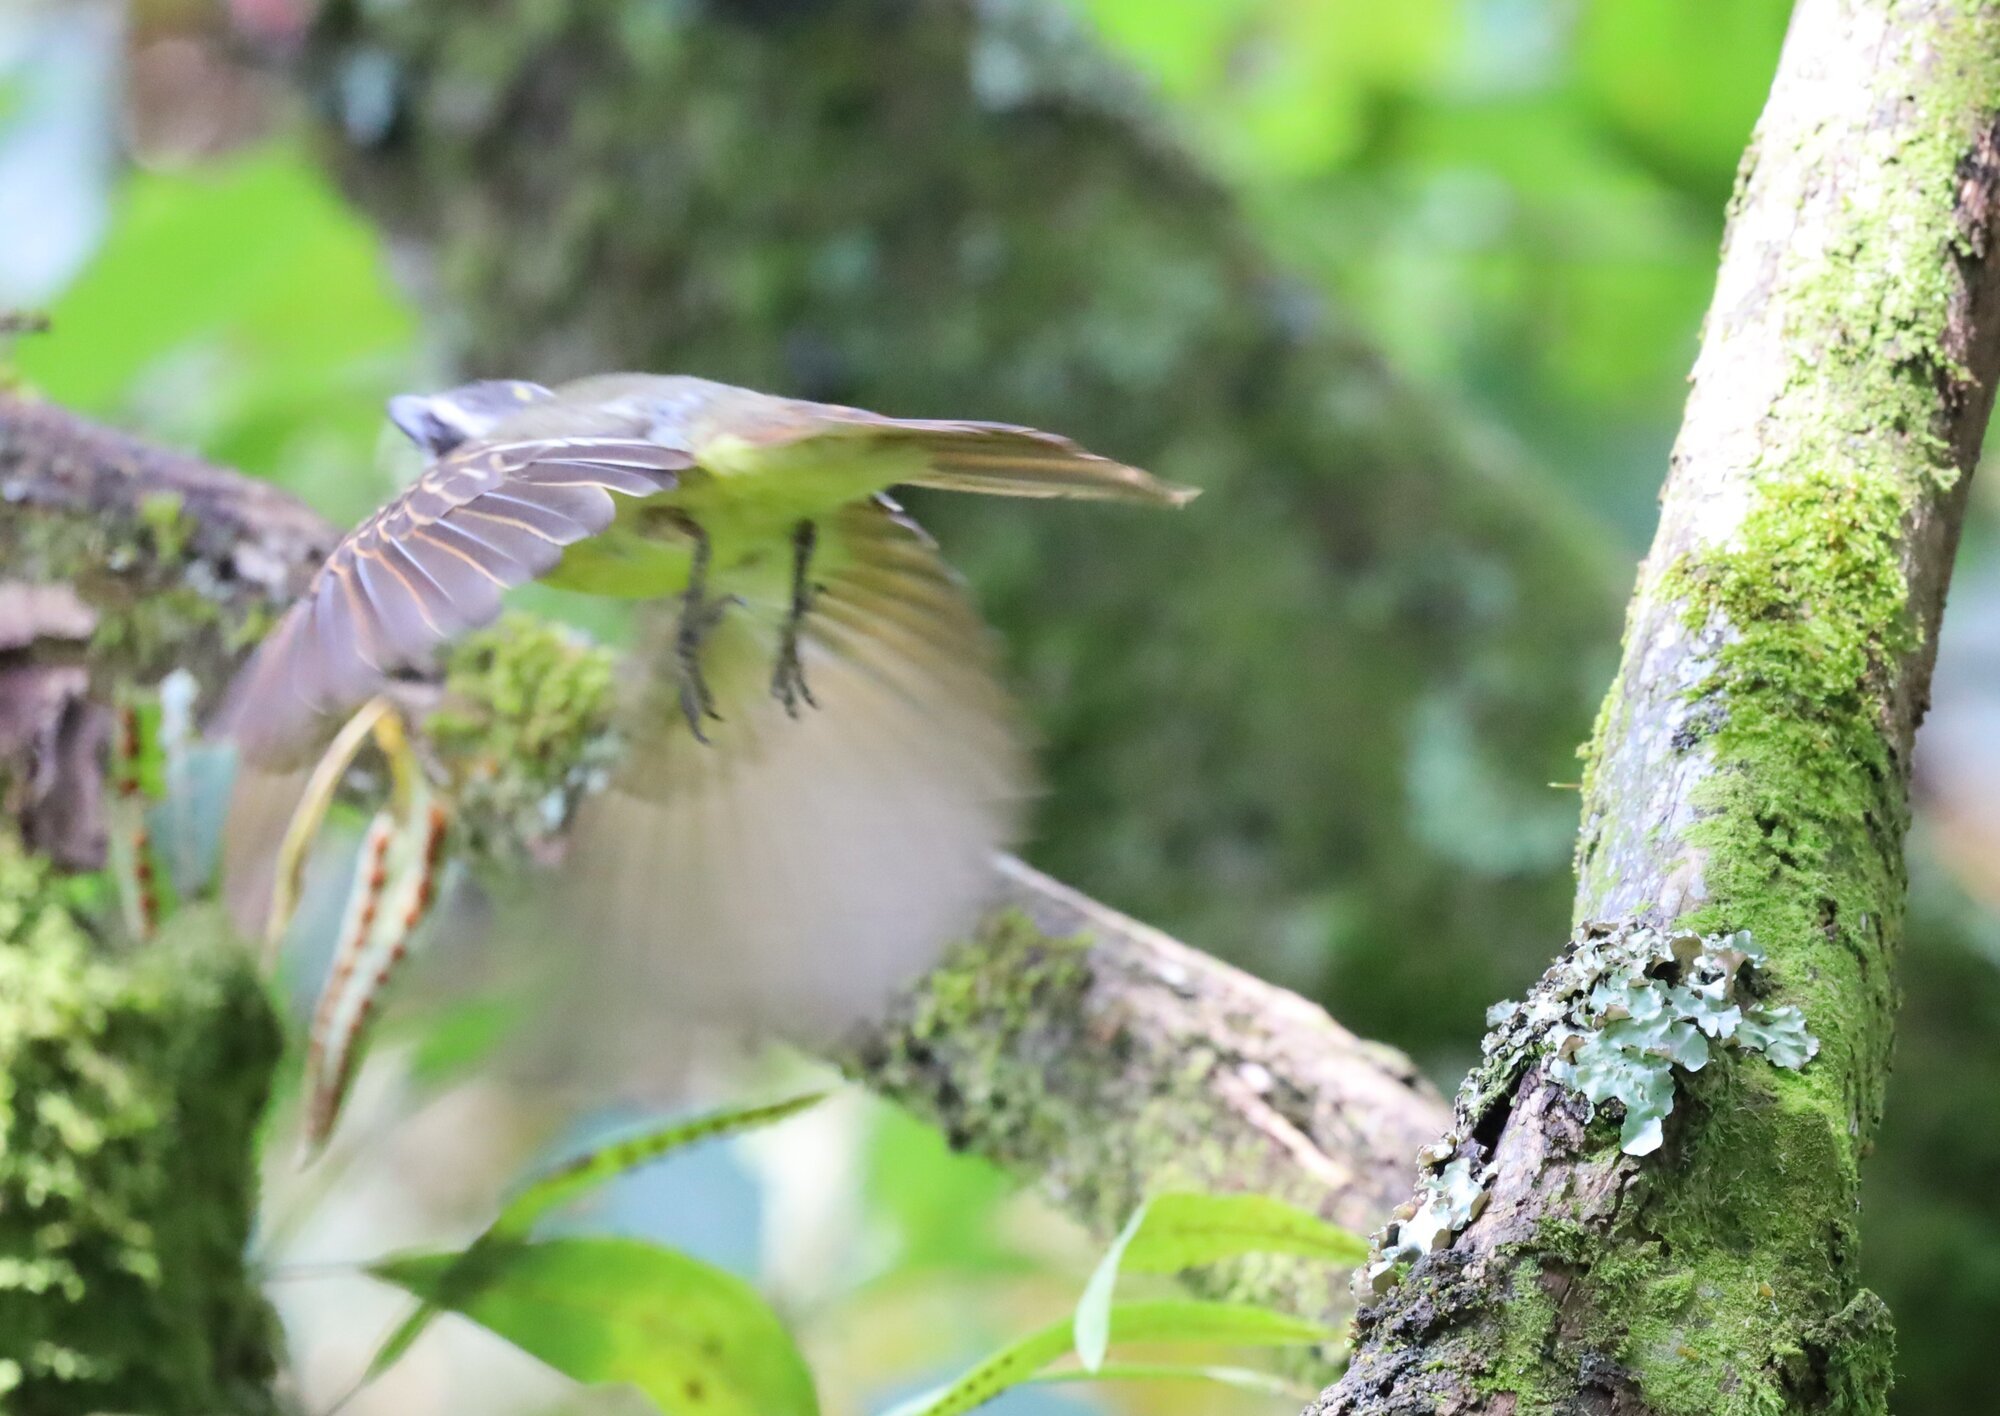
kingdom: Animalia
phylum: Chordata
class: Aves
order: Passeriformes
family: Tyrannidae
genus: Myiodynastes
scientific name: Myiodynastes hemichrysus
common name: Golden-bellied flycatcher
